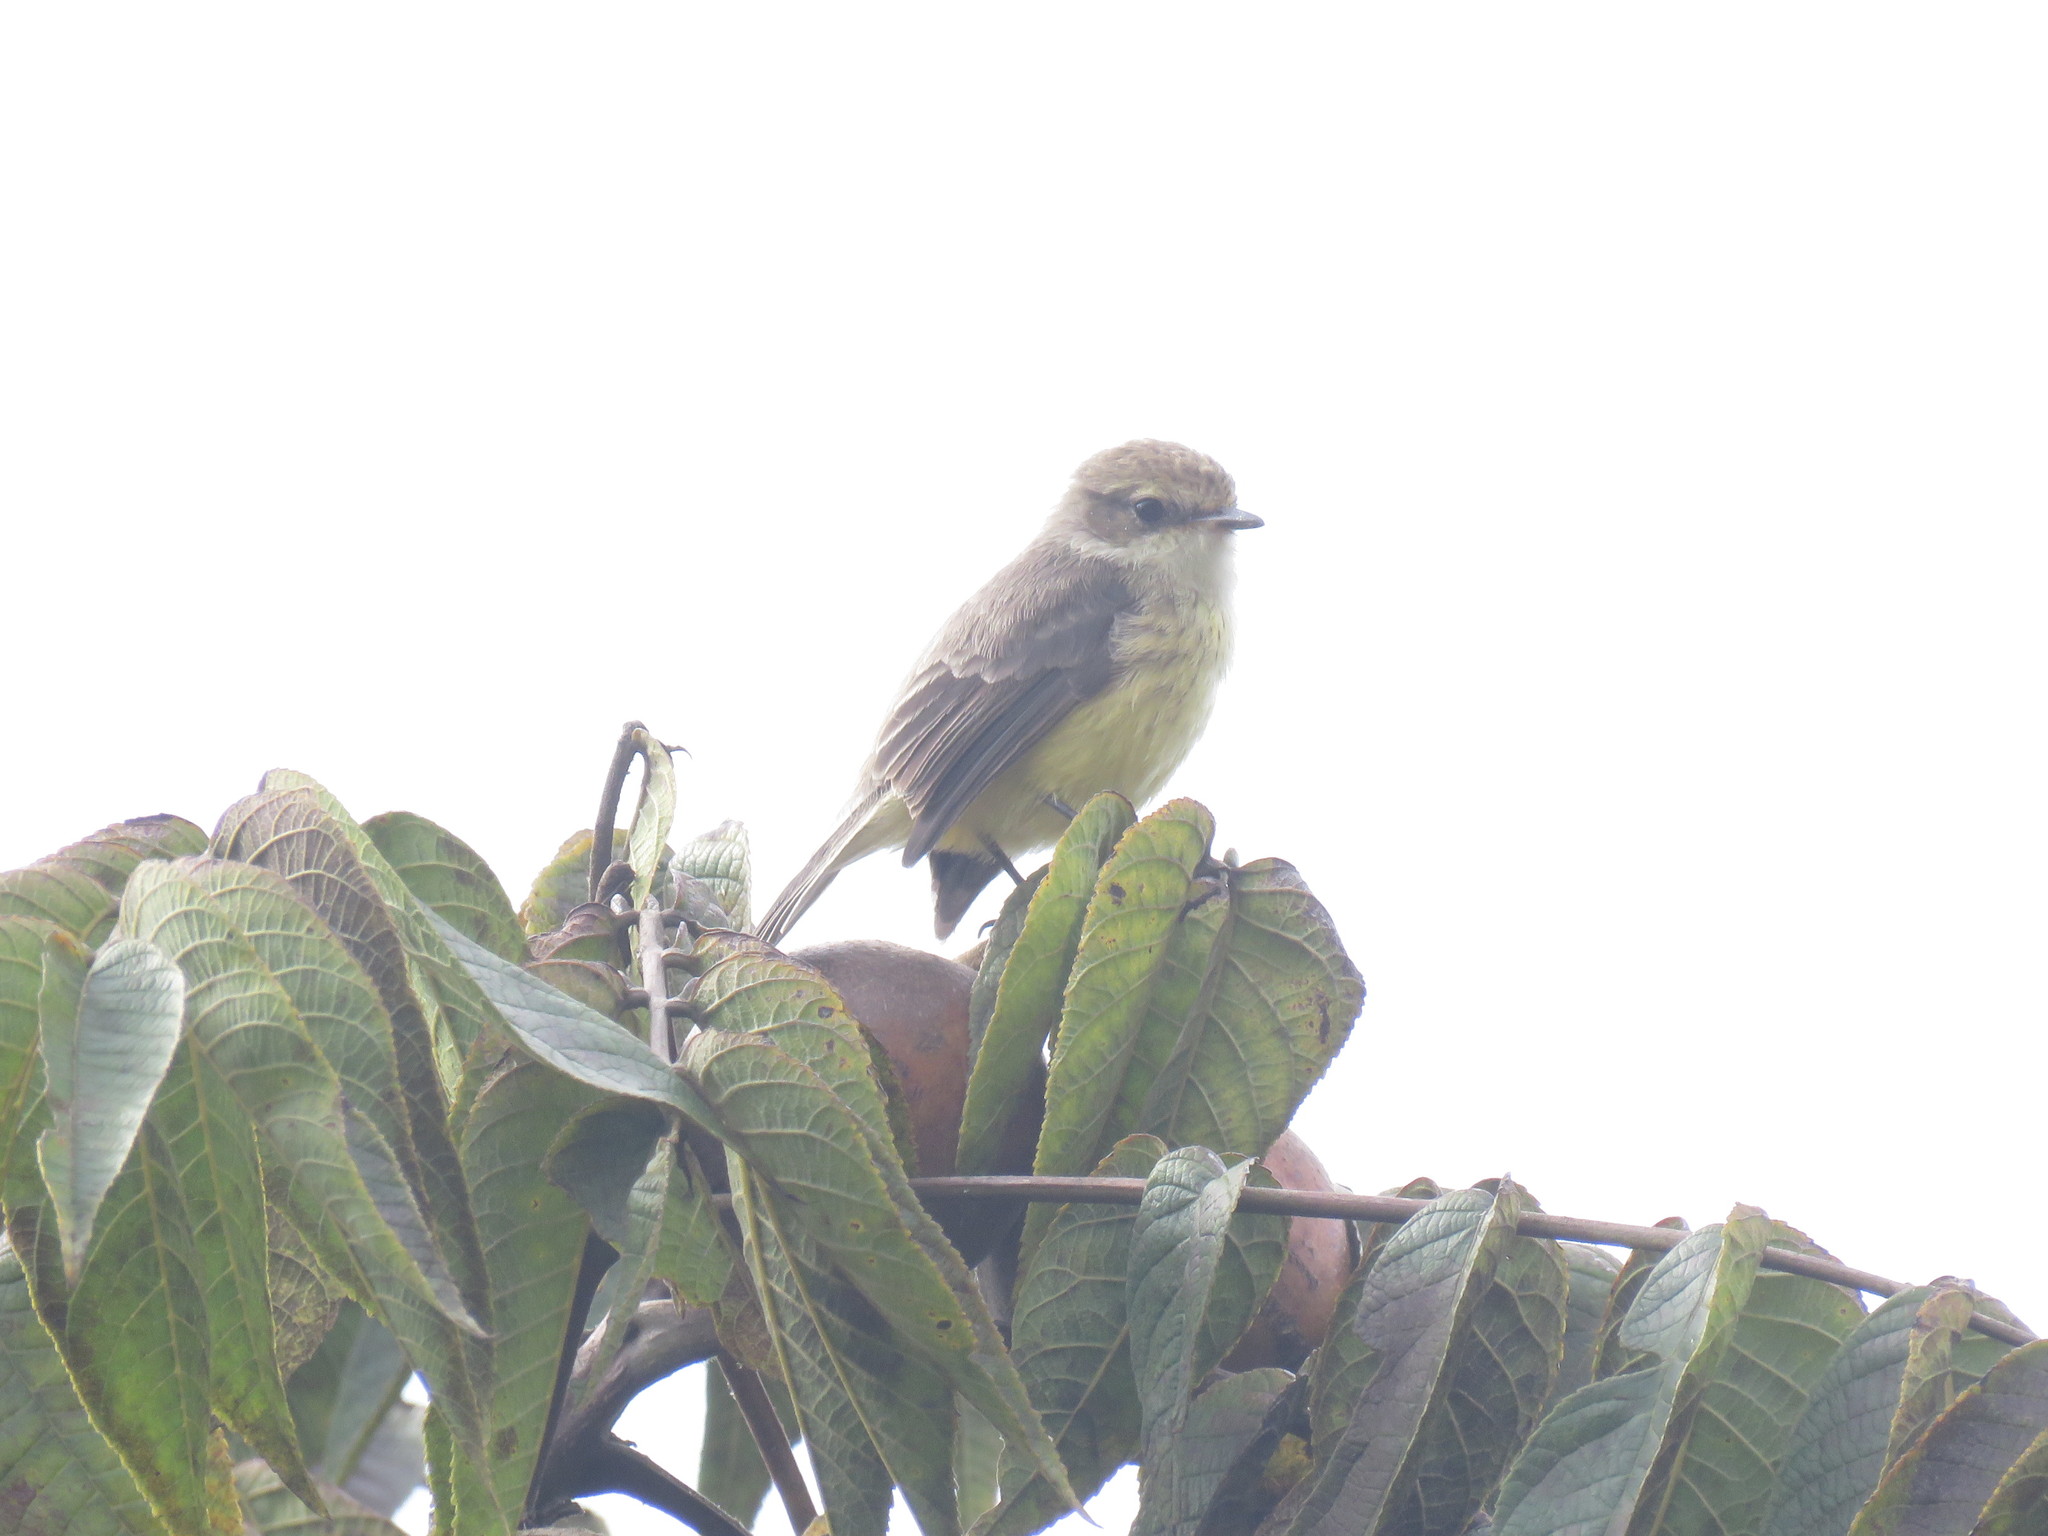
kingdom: Animalia
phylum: Chordata
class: Aves
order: Passeriformes
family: Tyrannidae
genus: Pyrocephalus
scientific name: Pyrocephalus rubinus
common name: Vermilion flycatcher
